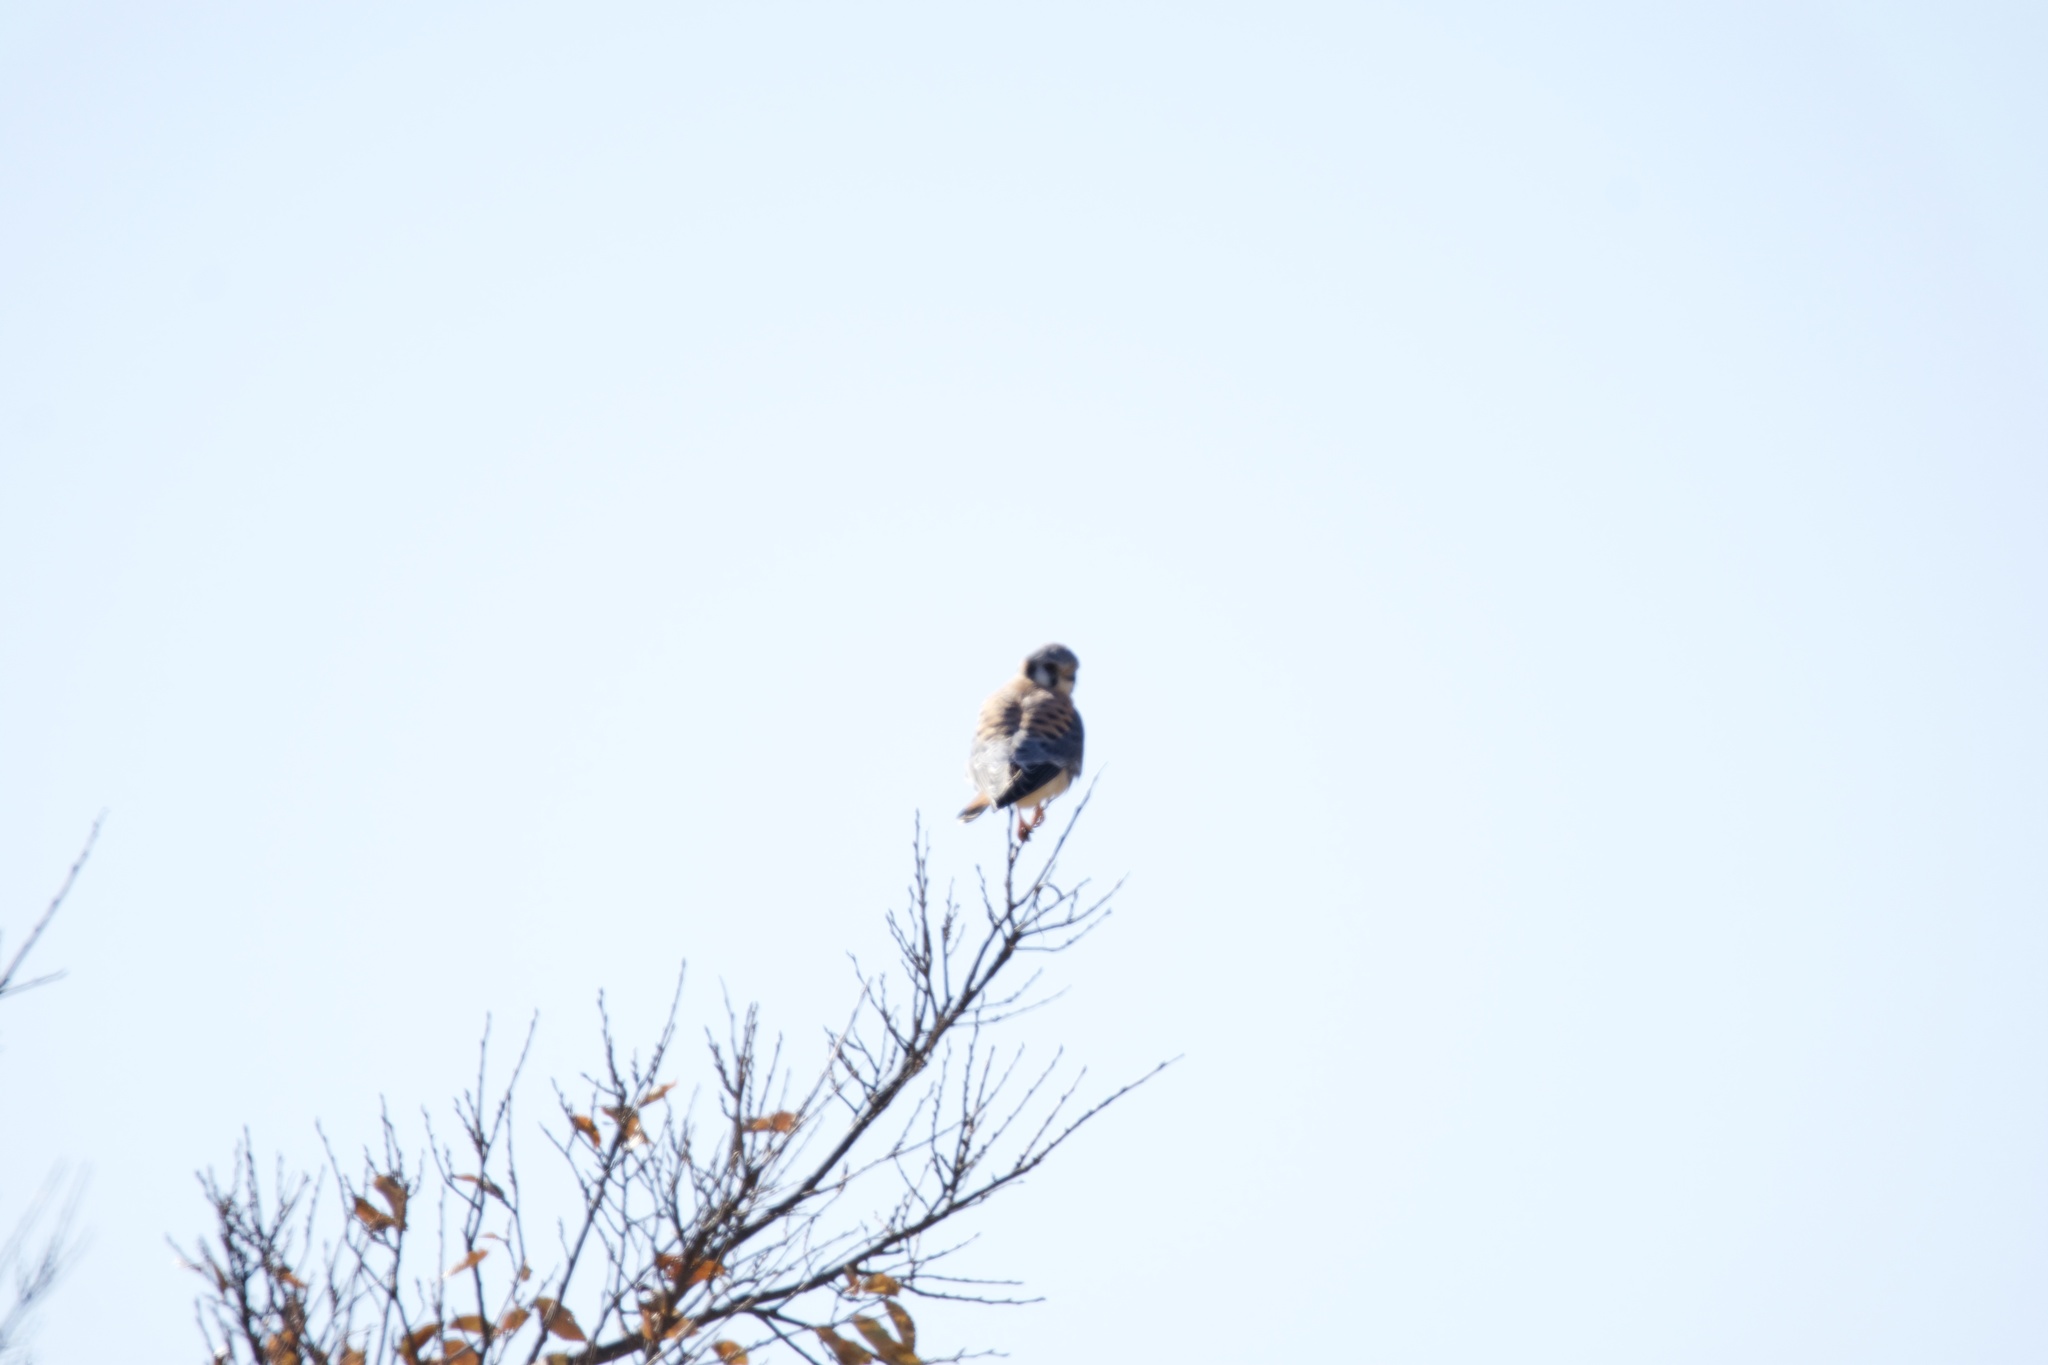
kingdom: Animalia
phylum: Chordata
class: Aves
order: Falconiformes
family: Falconidae
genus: Falco
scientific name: Falco sparverius
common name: American kestrel
